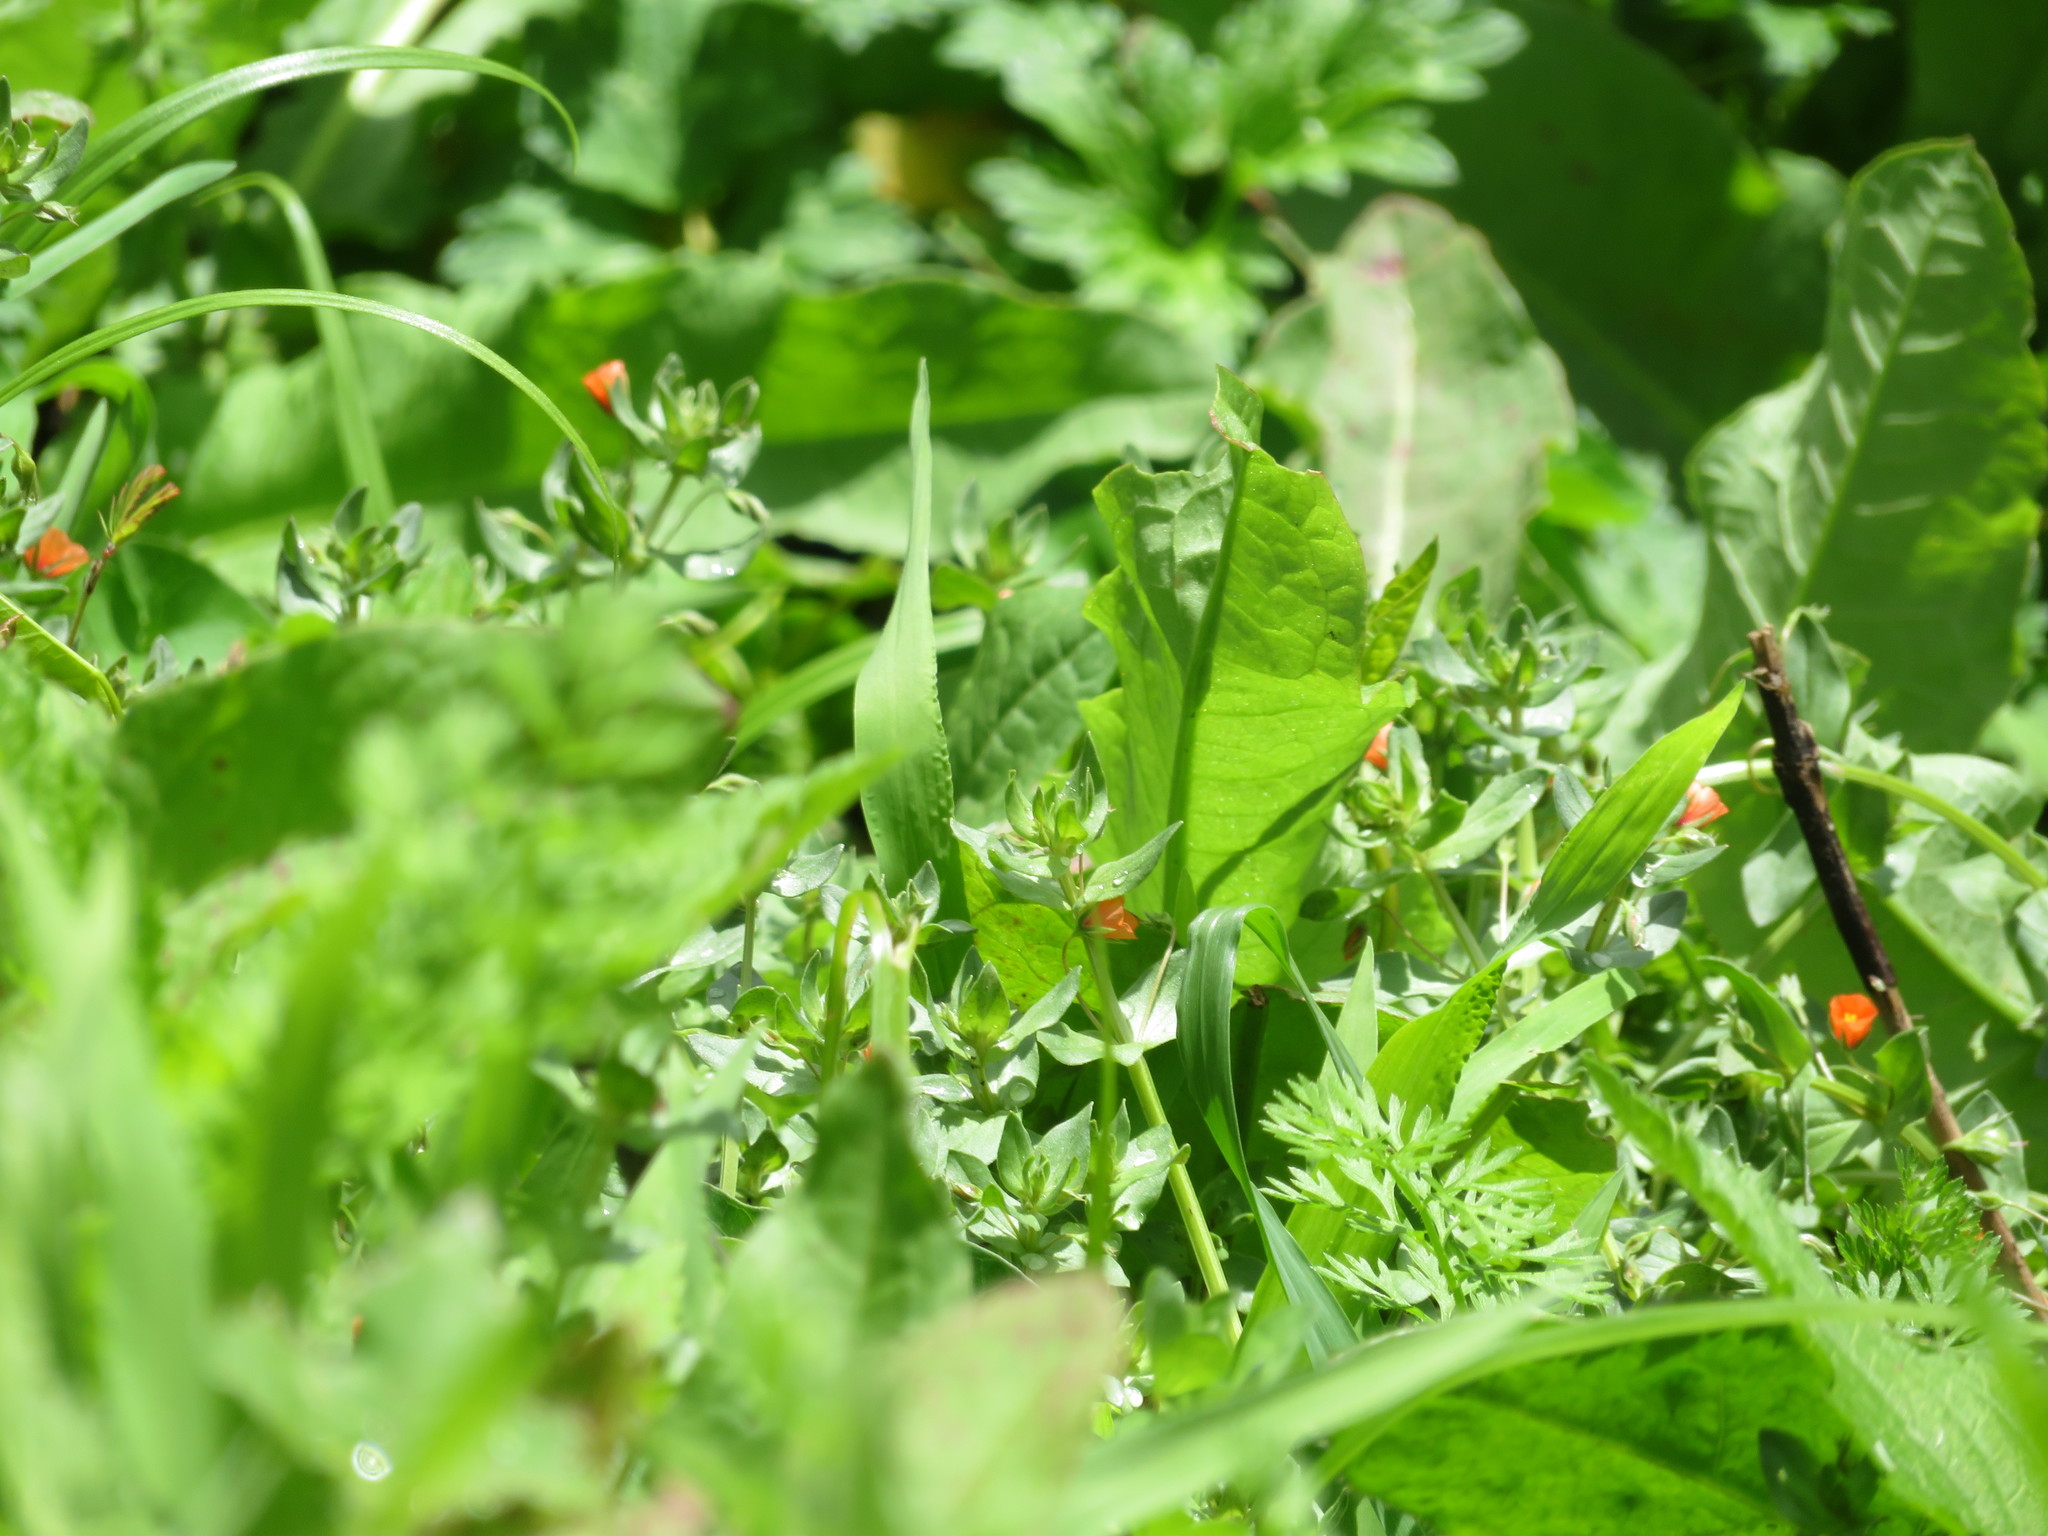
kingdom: Plantae
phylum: Tracheophyta
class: Magnoliopsida
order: Ericales
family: Primulaceae
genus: Lysimachia
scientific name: Lysimachia arvensis
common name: Scarlet pimpernel
